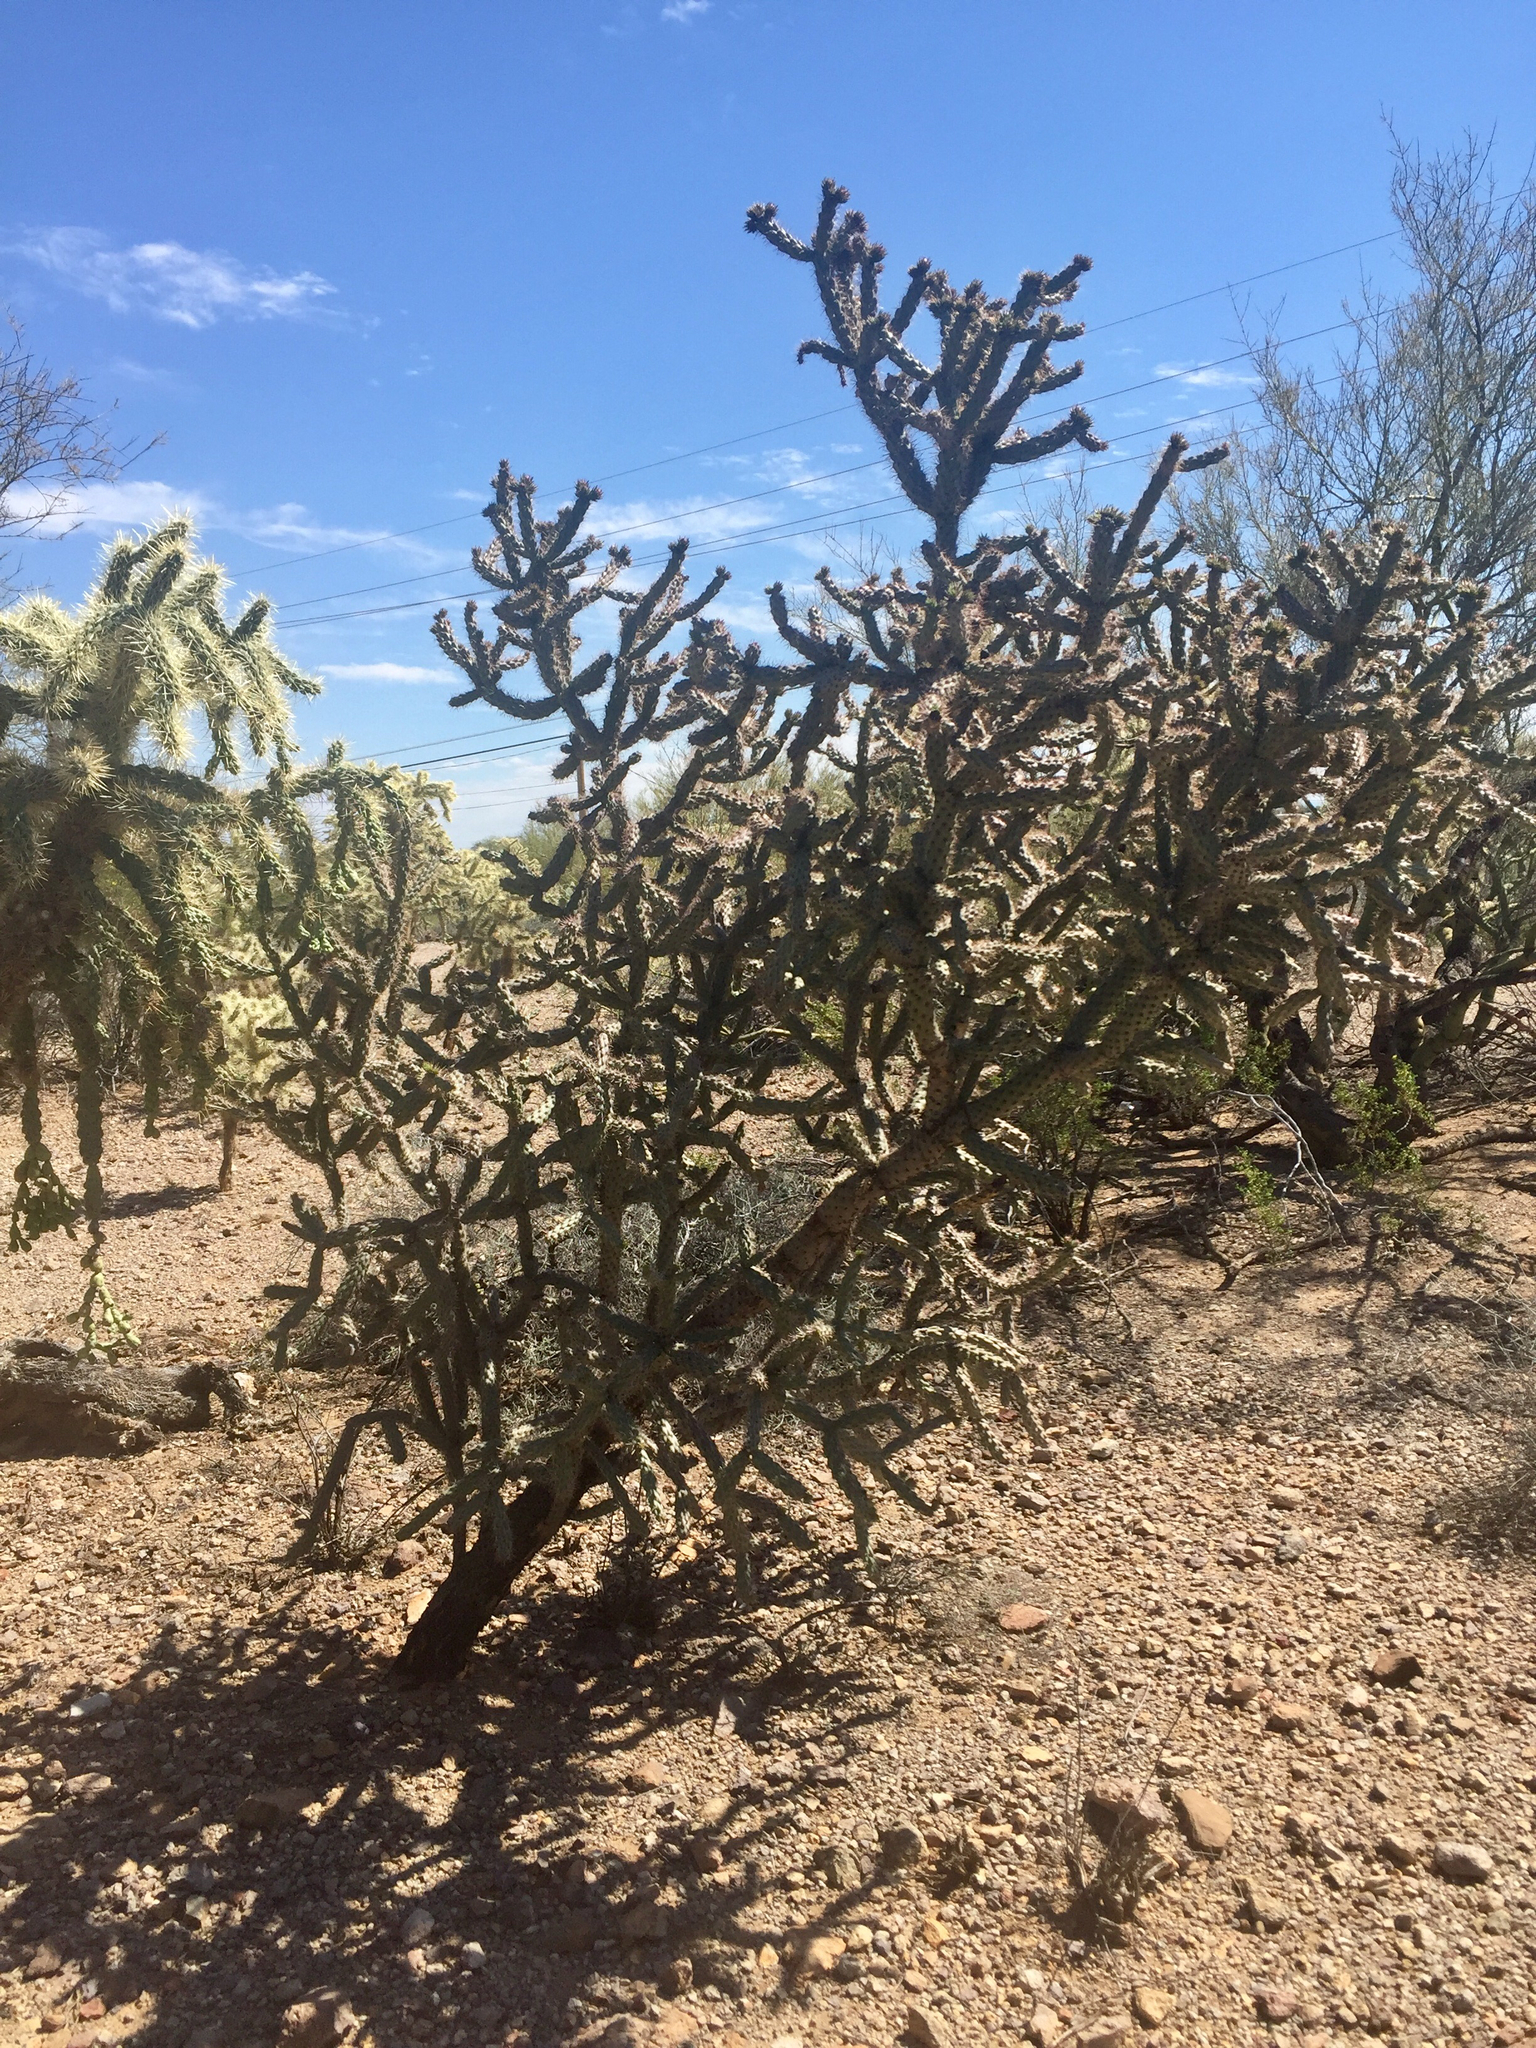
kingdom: Plantae
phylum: Tracheophyta
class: Magnoliopsida
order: Caryophyllales
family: Cactaceae
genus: Cylindropuntia
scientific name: Cylindropuntia acanthocarpa
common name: Buckhorn cholla
